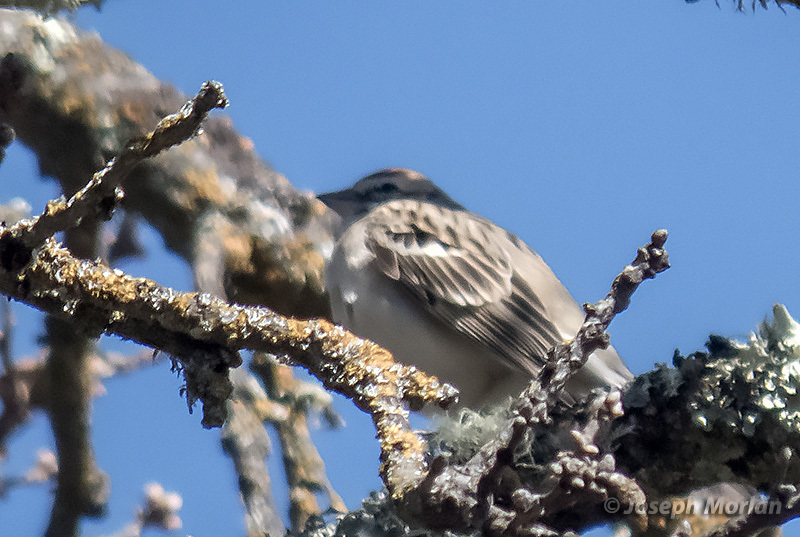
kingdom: Animalia
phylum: Chordata
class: Aves
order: Passeriformes
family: Passerellidae
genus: Chondestes
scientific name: Chondestes grammacus
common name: Lark sparrow
